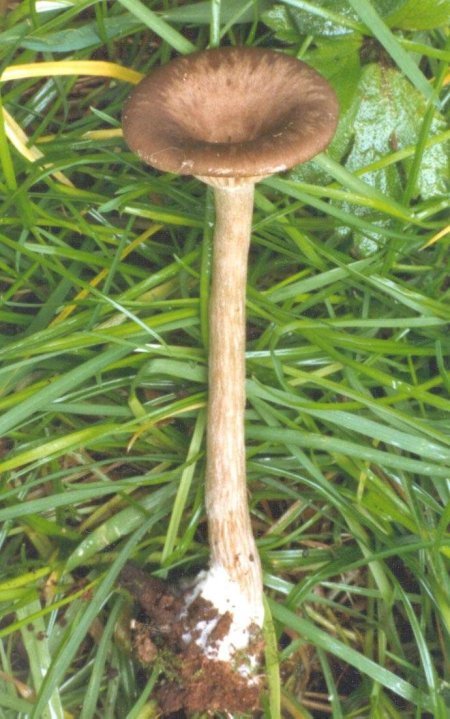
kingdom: Fungi
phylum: Basidiomycota
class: Agaricomycetes
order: Agaricales
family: Pseudoclitocybaceae
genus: Pseudoclitocybe
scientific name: Pseudoclitocybe cyathiformis
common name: Goblet
